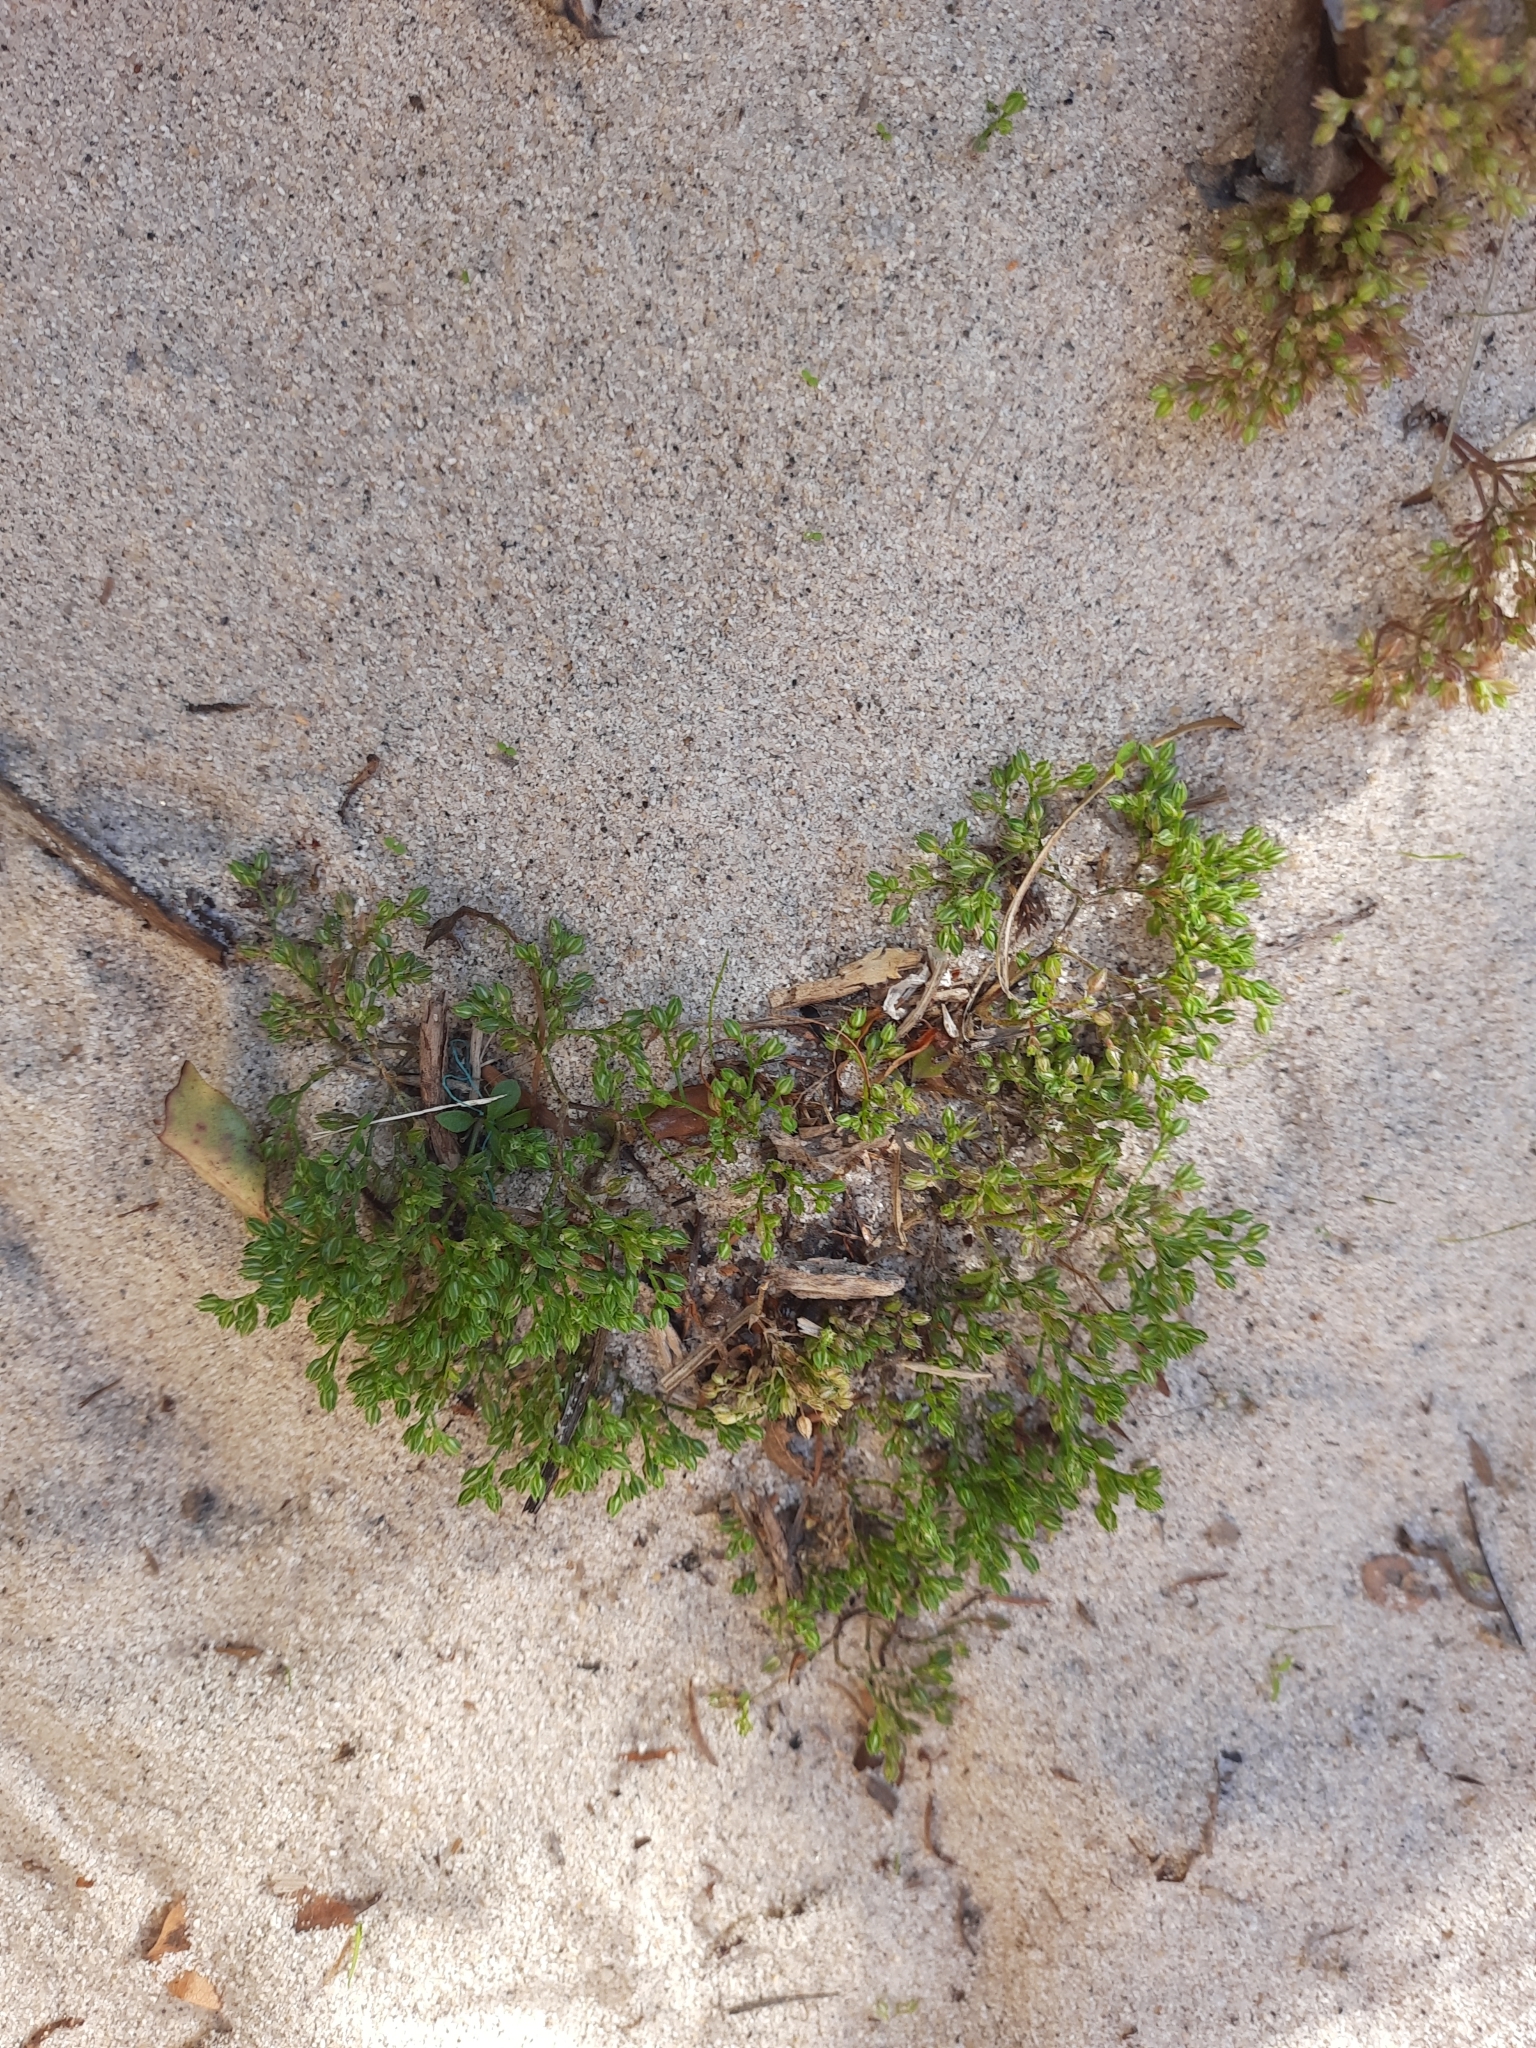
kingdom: Plantae
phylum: Tracheophyta
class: Magnoliopsida
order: Caryophyllales
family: Caryophyllaceae
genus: Polycarpon
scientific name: Polycarpon tetraphyllum
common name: Four-leaved all-seed
